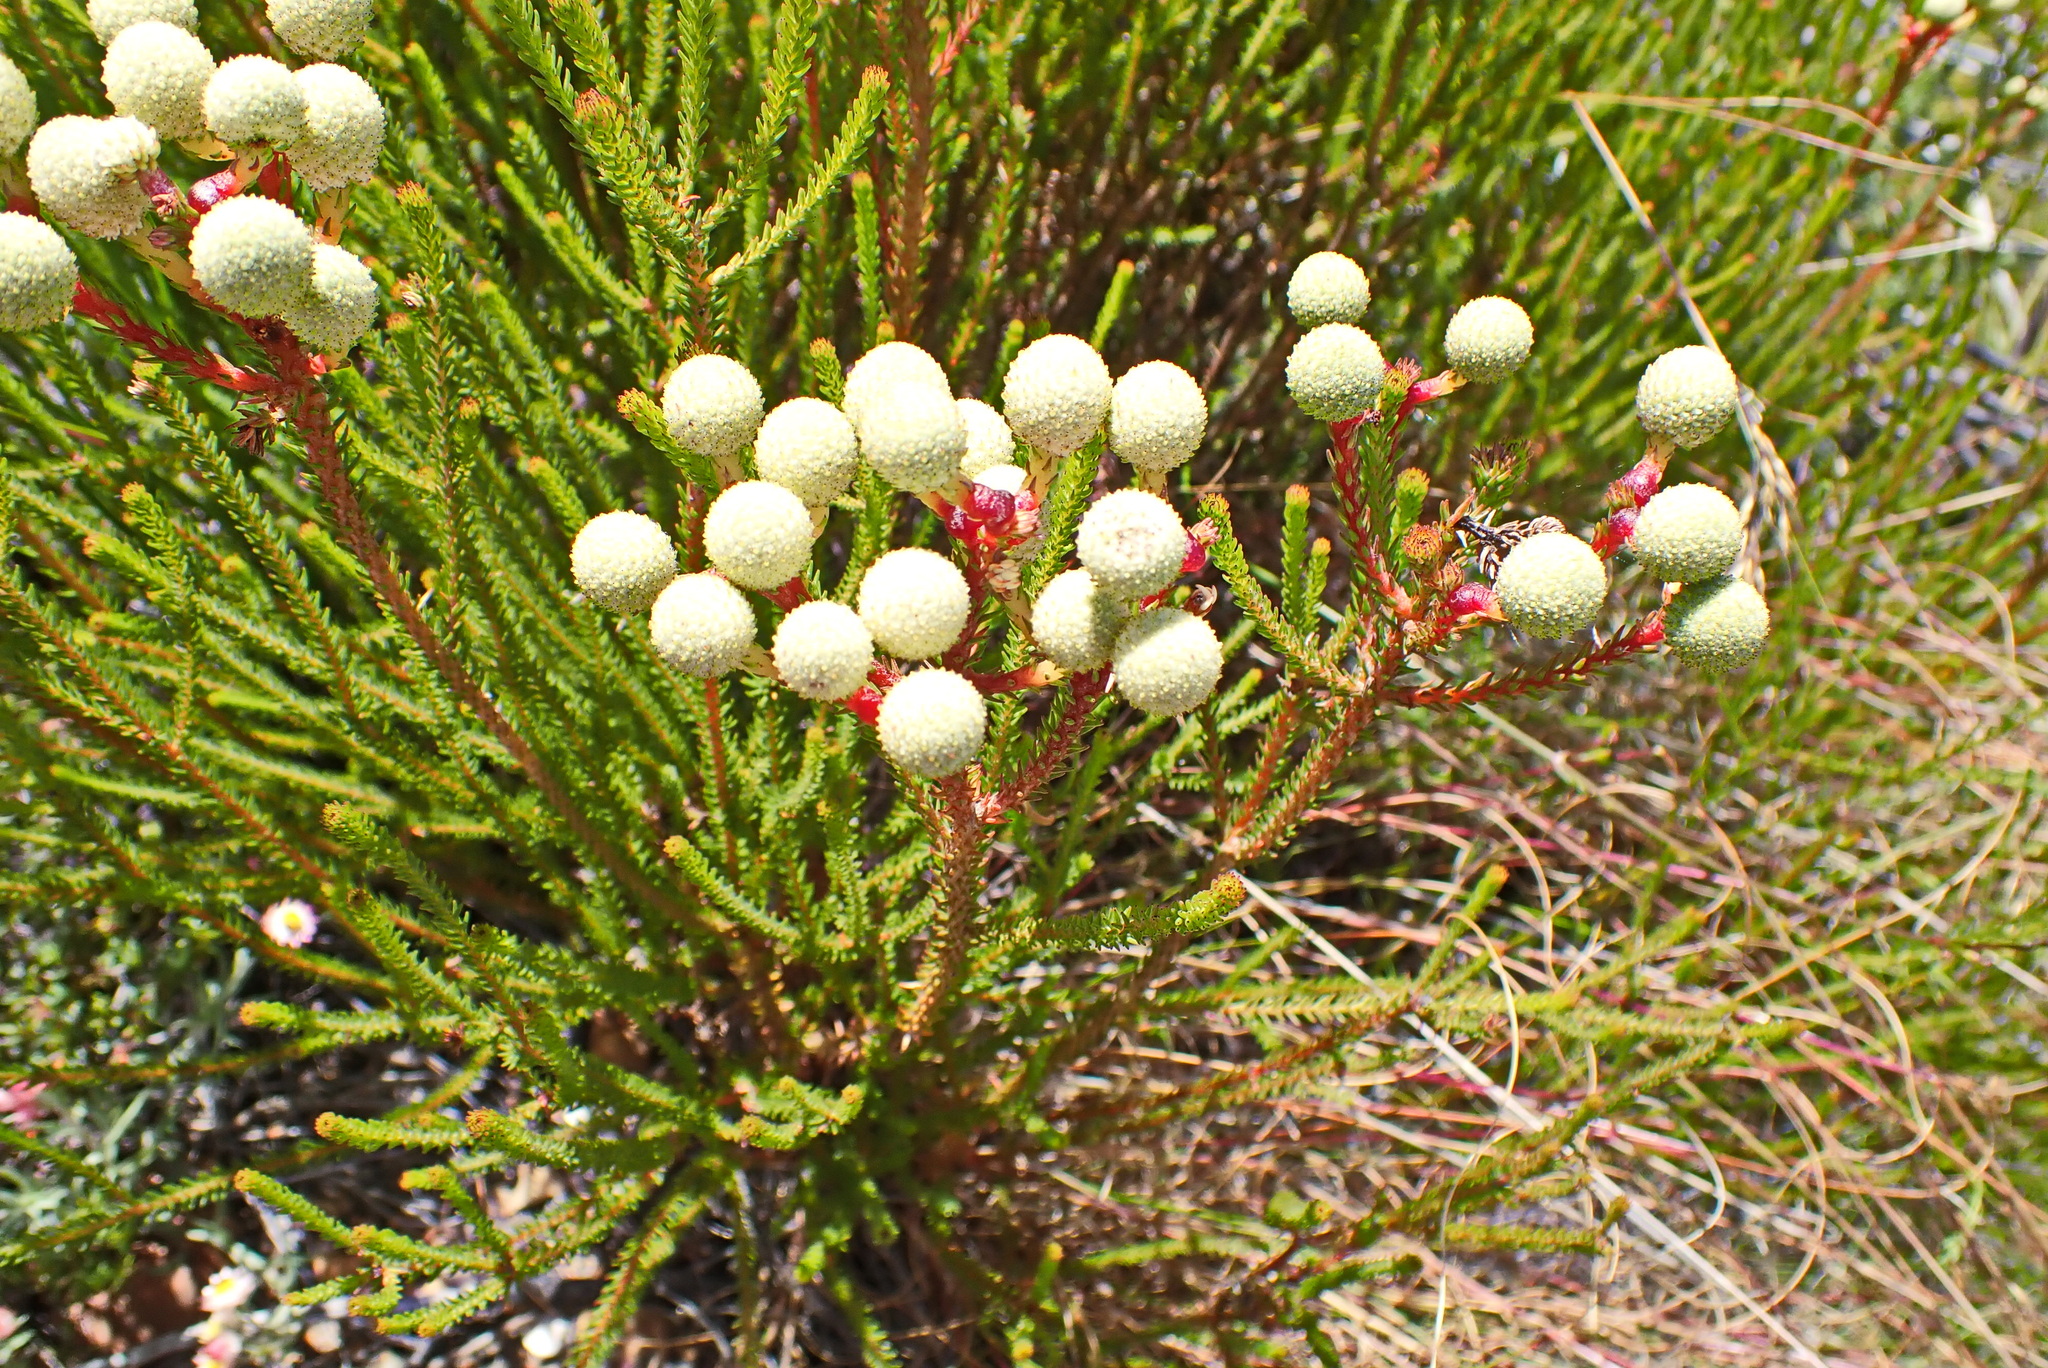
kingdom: Plantae
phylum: Tracheophyta
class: Magnoliopsida
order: Bruniales
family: Bruniaceae
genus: Berzelia
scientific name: Berzelia intermedia
